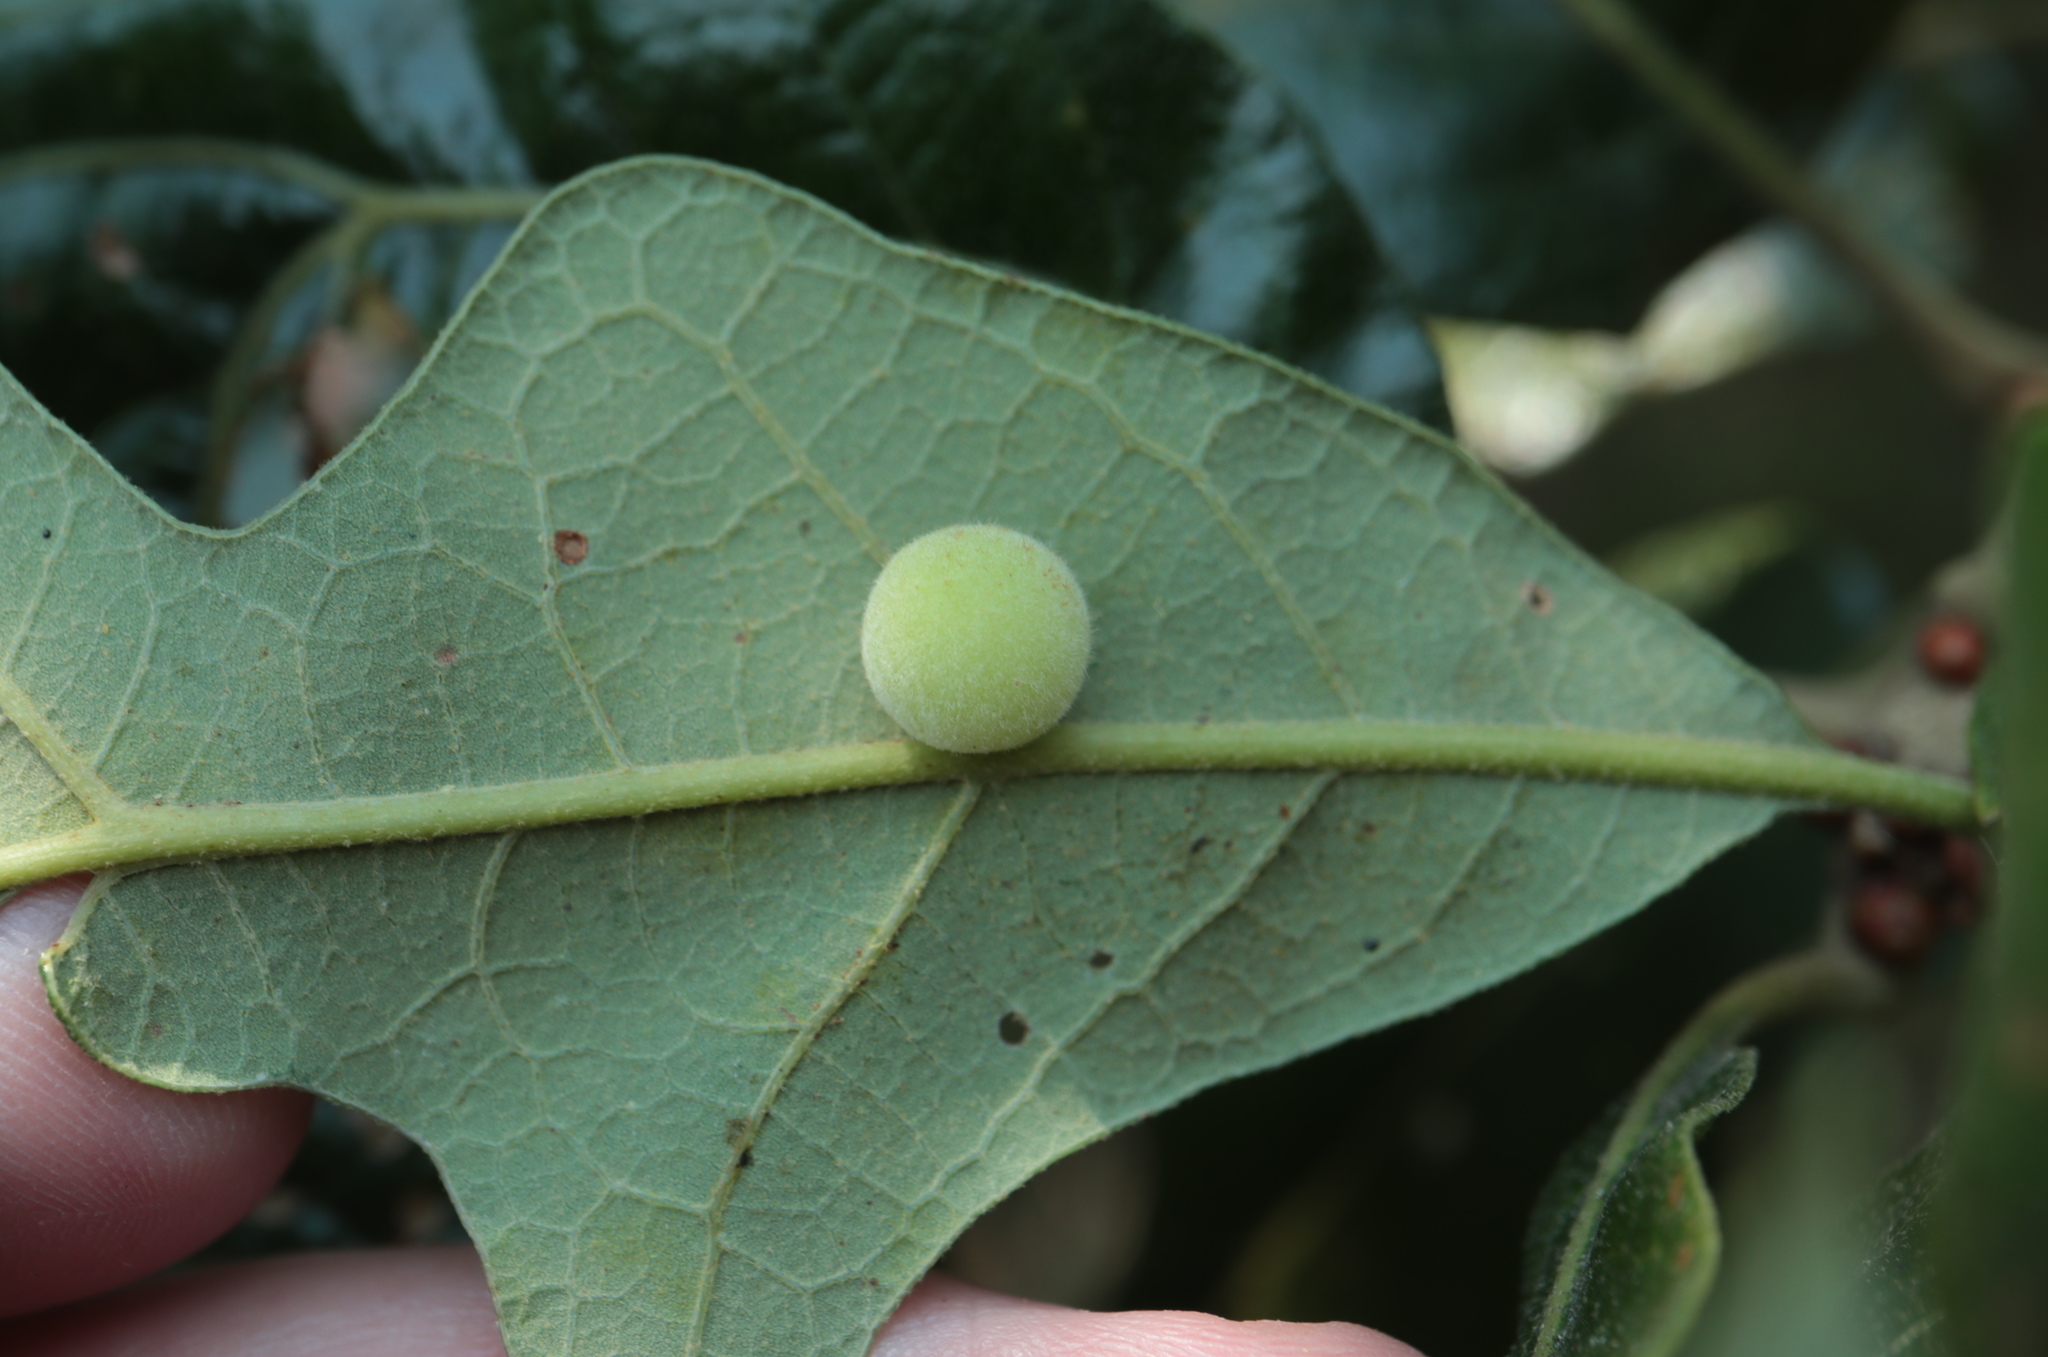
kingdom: Animalia
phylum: Arthropoda
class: Insecta
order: Hymenoptera
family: Cynipidae
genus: Atrusca
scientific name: Atrusca
